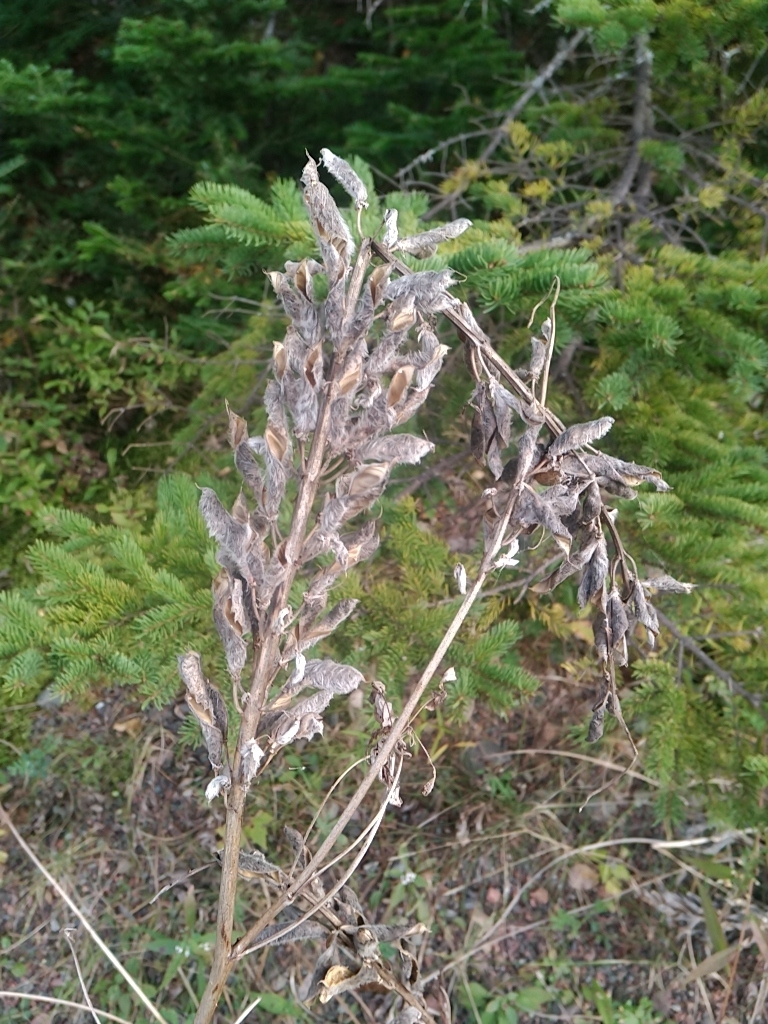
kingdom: Plantae
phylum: Tracheophyta
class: Magnoliopsida
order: Fabales
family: Fabaceae
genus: Lupinus
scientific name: Lupinus polyphyllus
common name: Garden lupin
